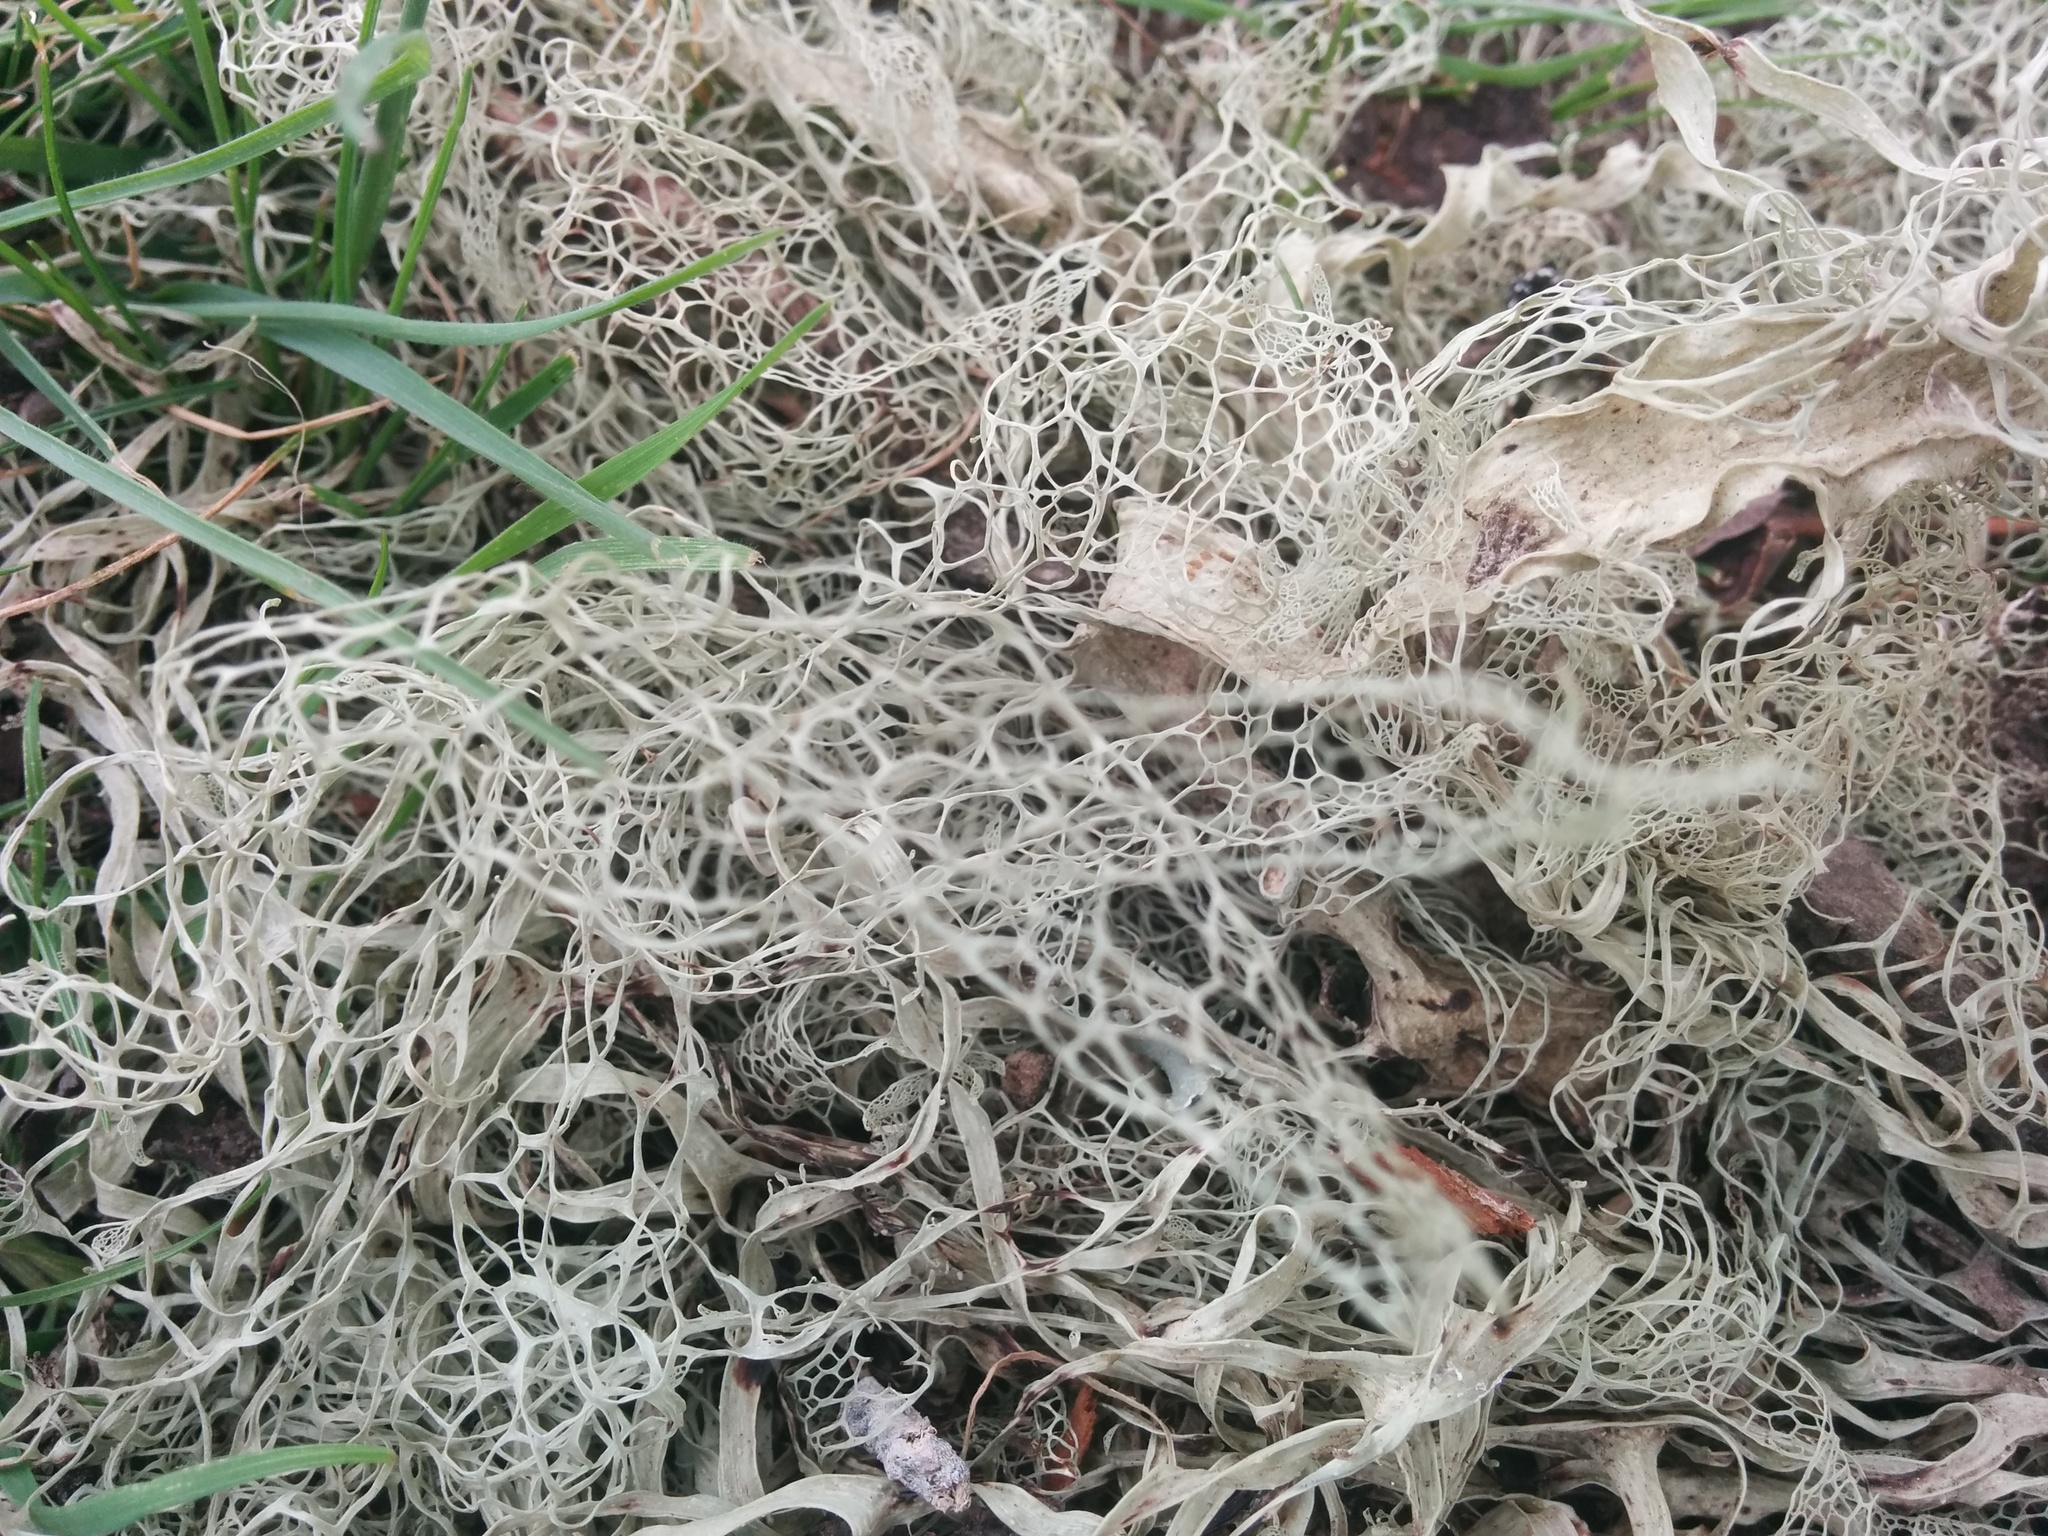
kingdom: Fungi
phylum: Ascomycota
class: Lecanoromycetes
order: Lecanorales
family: Ramalinaceae
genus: Ramalina
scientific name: Ramalina menziesii
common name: Lace lichen
